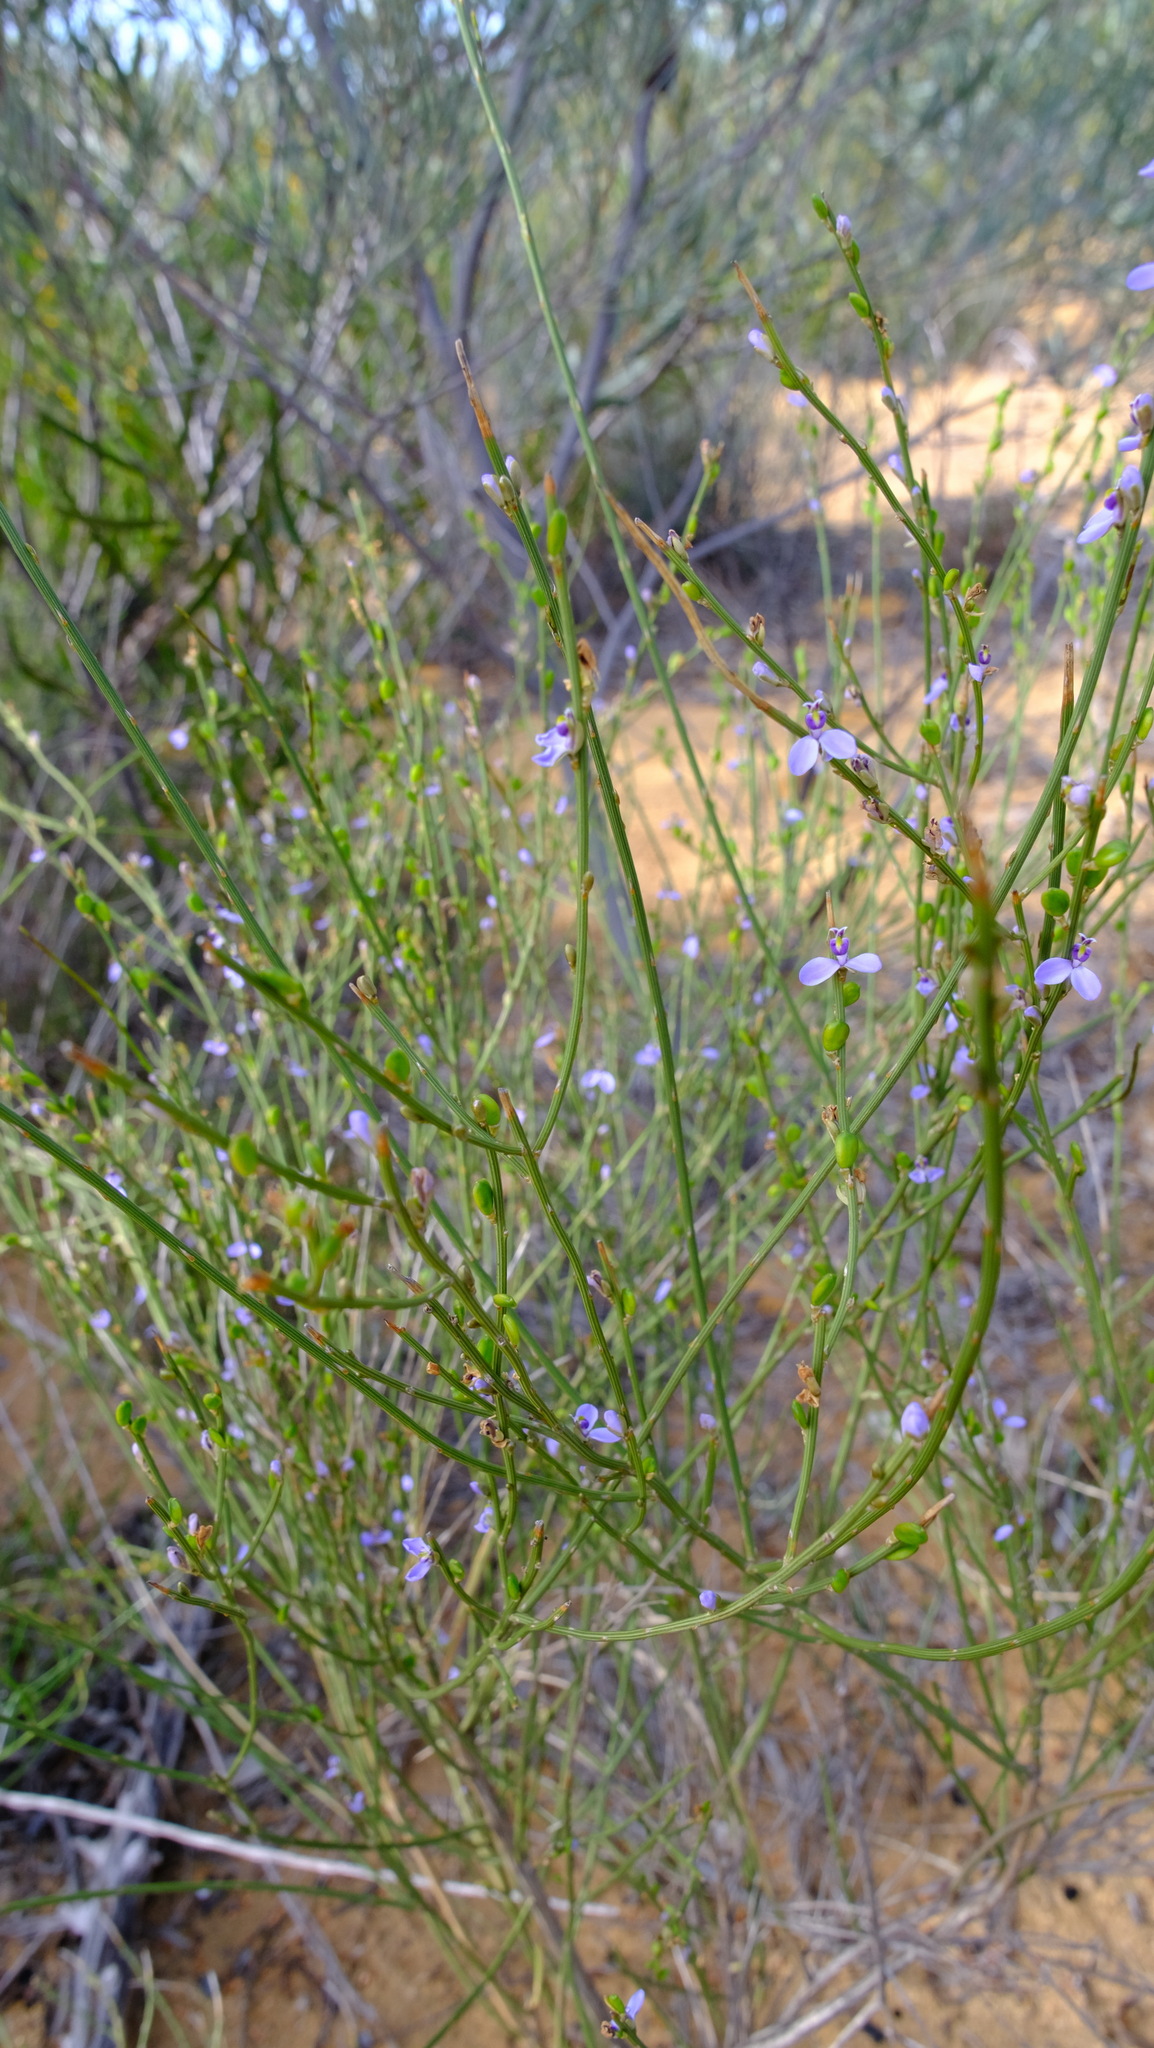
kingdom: Plantae
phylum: Tracheophyta
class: Magnoliopsida
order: Fabales
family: Polygalaceae
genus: Comesperma
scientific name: Comesperma scoparium
